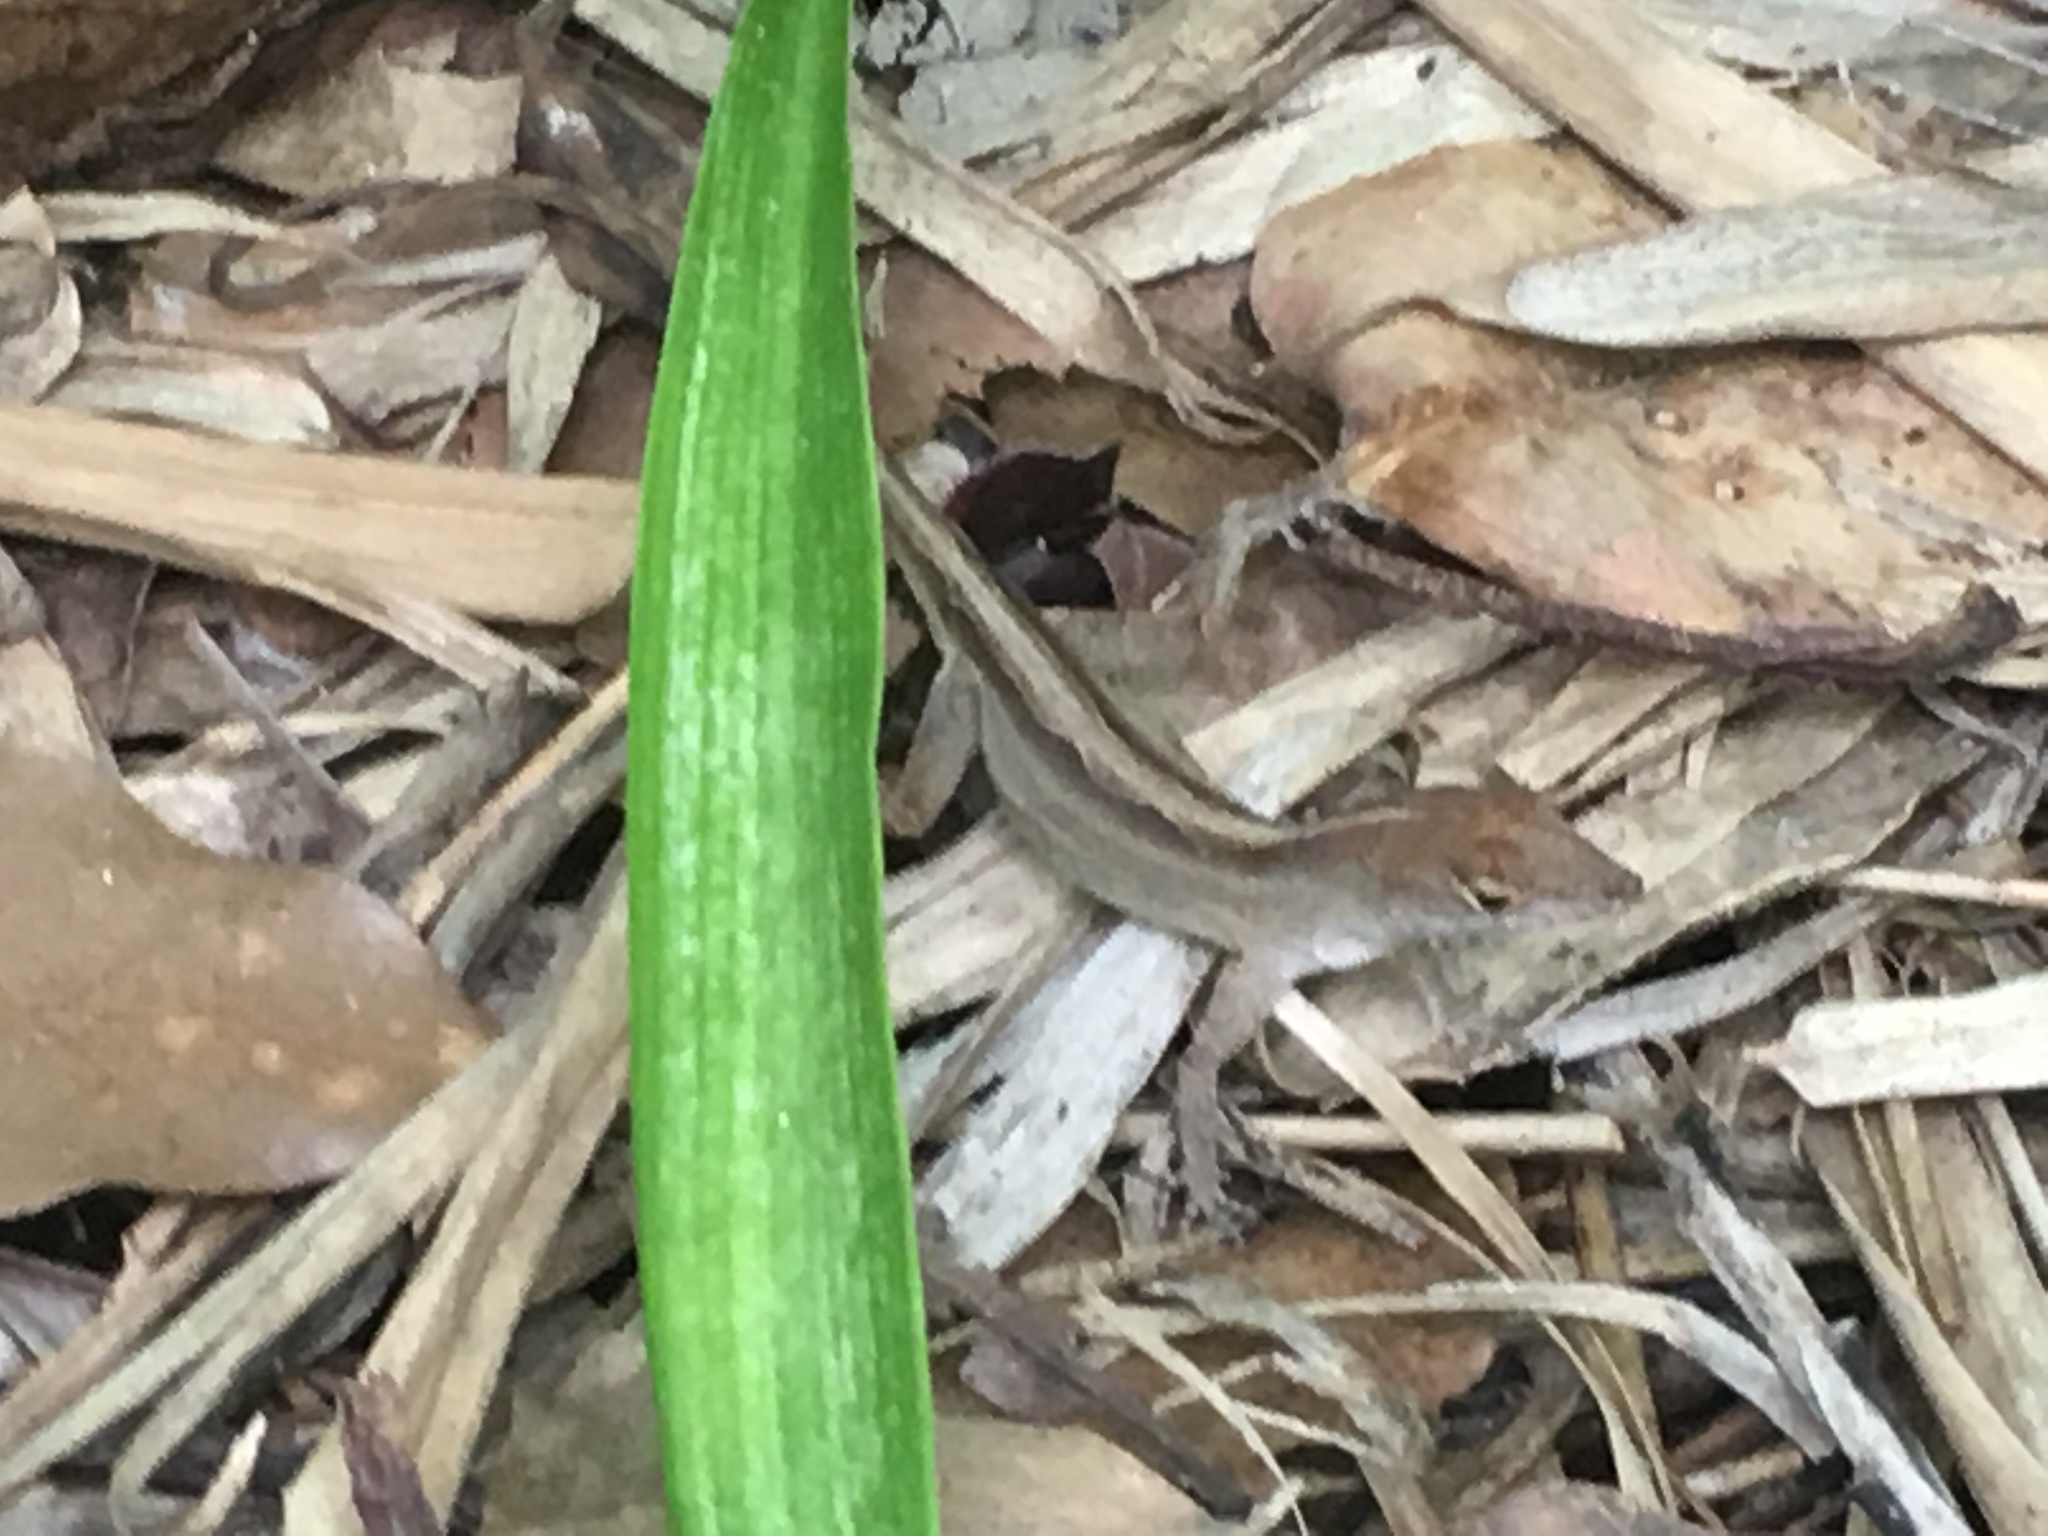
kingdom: Animalia
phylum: Chordata
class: Squamata
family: Dactyloidae
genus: Anolis
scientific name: Anolis sagrei
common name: Brown anole
